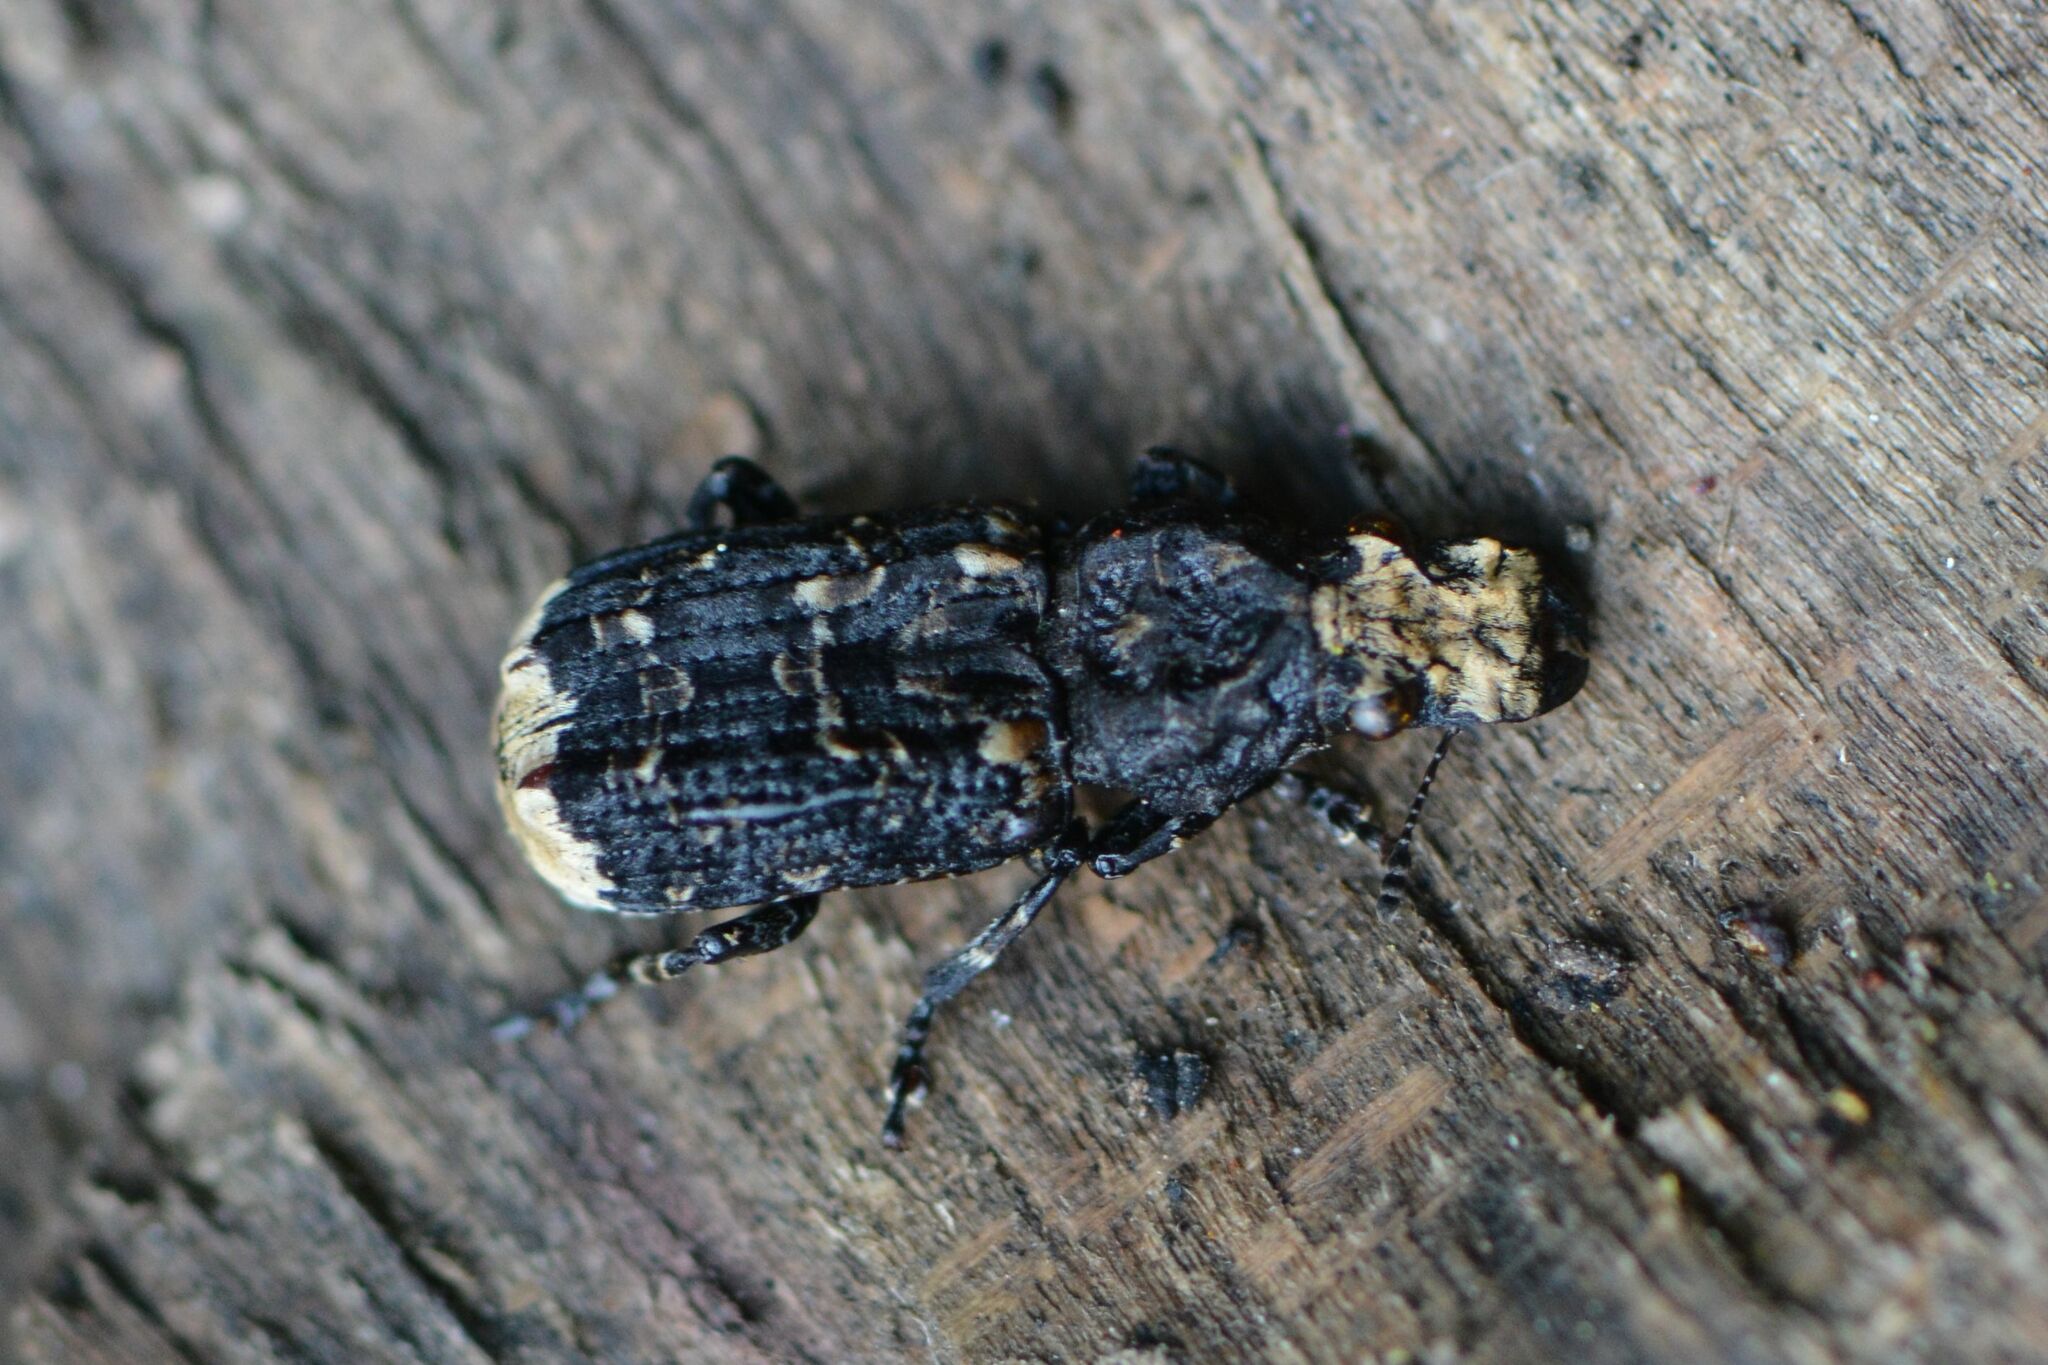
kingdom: Animalia
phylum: Arthropoda
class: Insecta
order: Coleoptera
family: Anthribidae
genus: Platyrhinus
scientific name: Platyrhinus resinosus
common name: Cramp-ball fungus weevil
